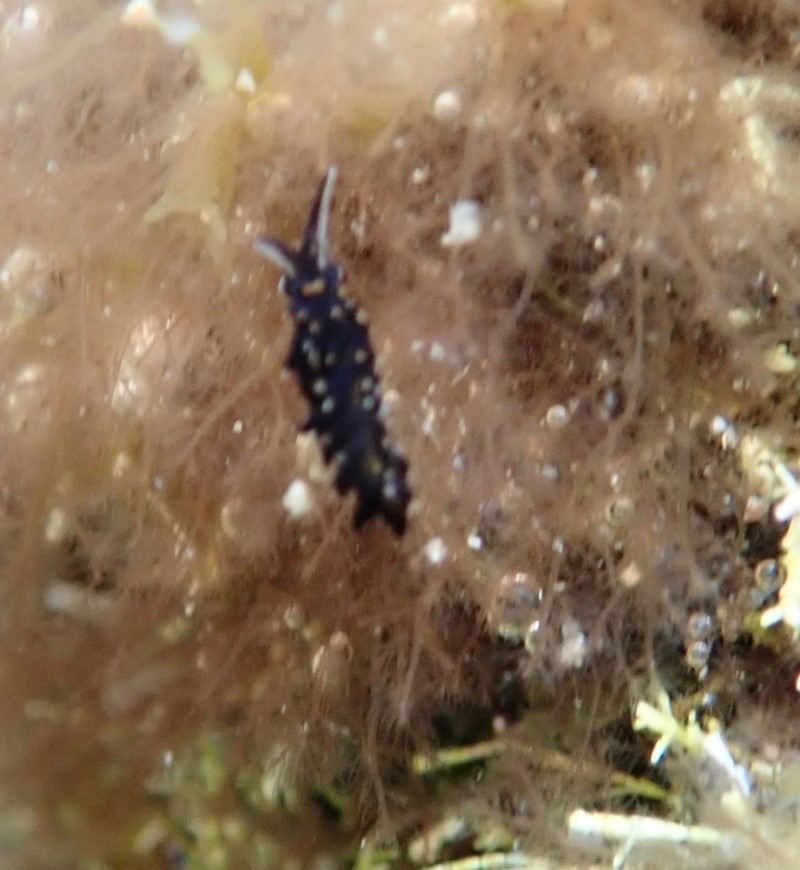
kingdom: Animalia
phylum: Mollusca
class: Gastropoda
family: Limapontiidae
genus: Ercolania
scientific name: Ercolania boodleae
